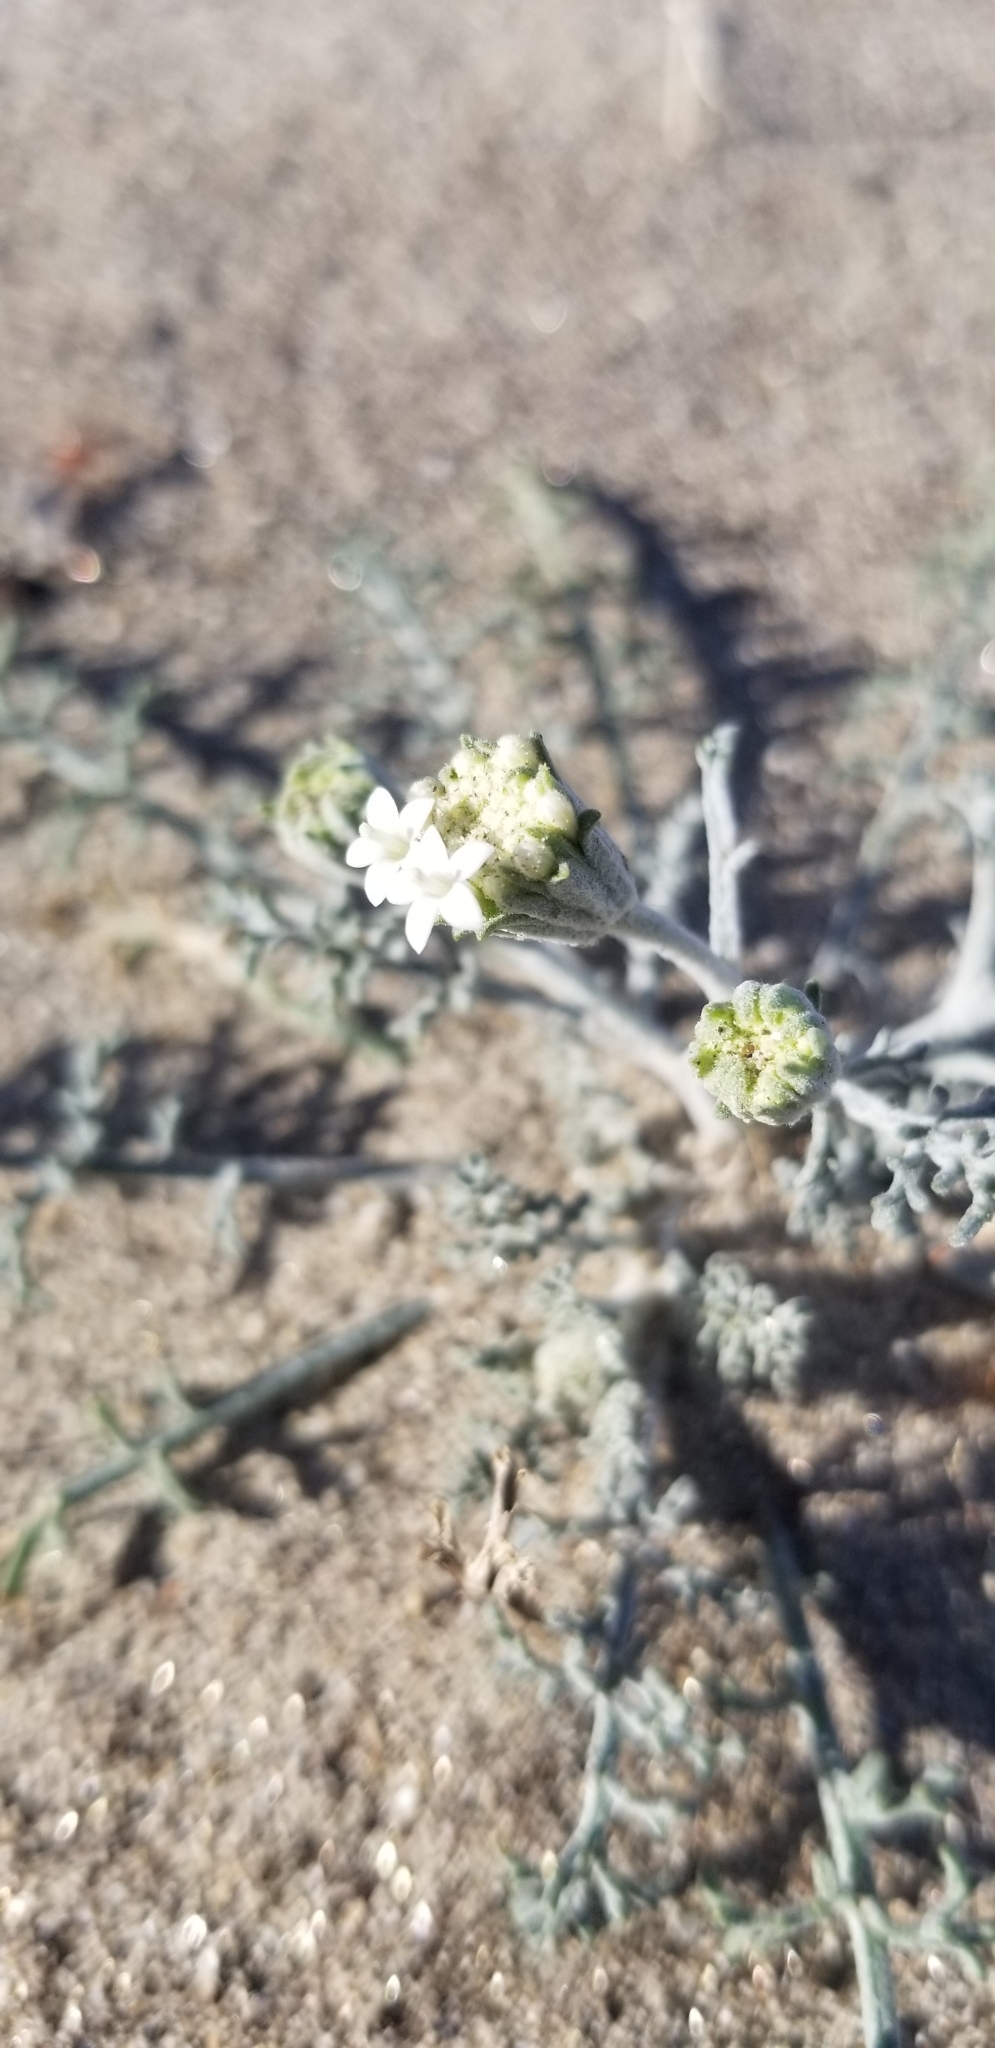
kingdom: Plantae
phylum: Tracheophyta
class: Magnoliopsida
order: Asterales
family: Asteraceae
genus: Chaenactis
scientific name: Chaenactis stevioides
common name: Desert pincushion
